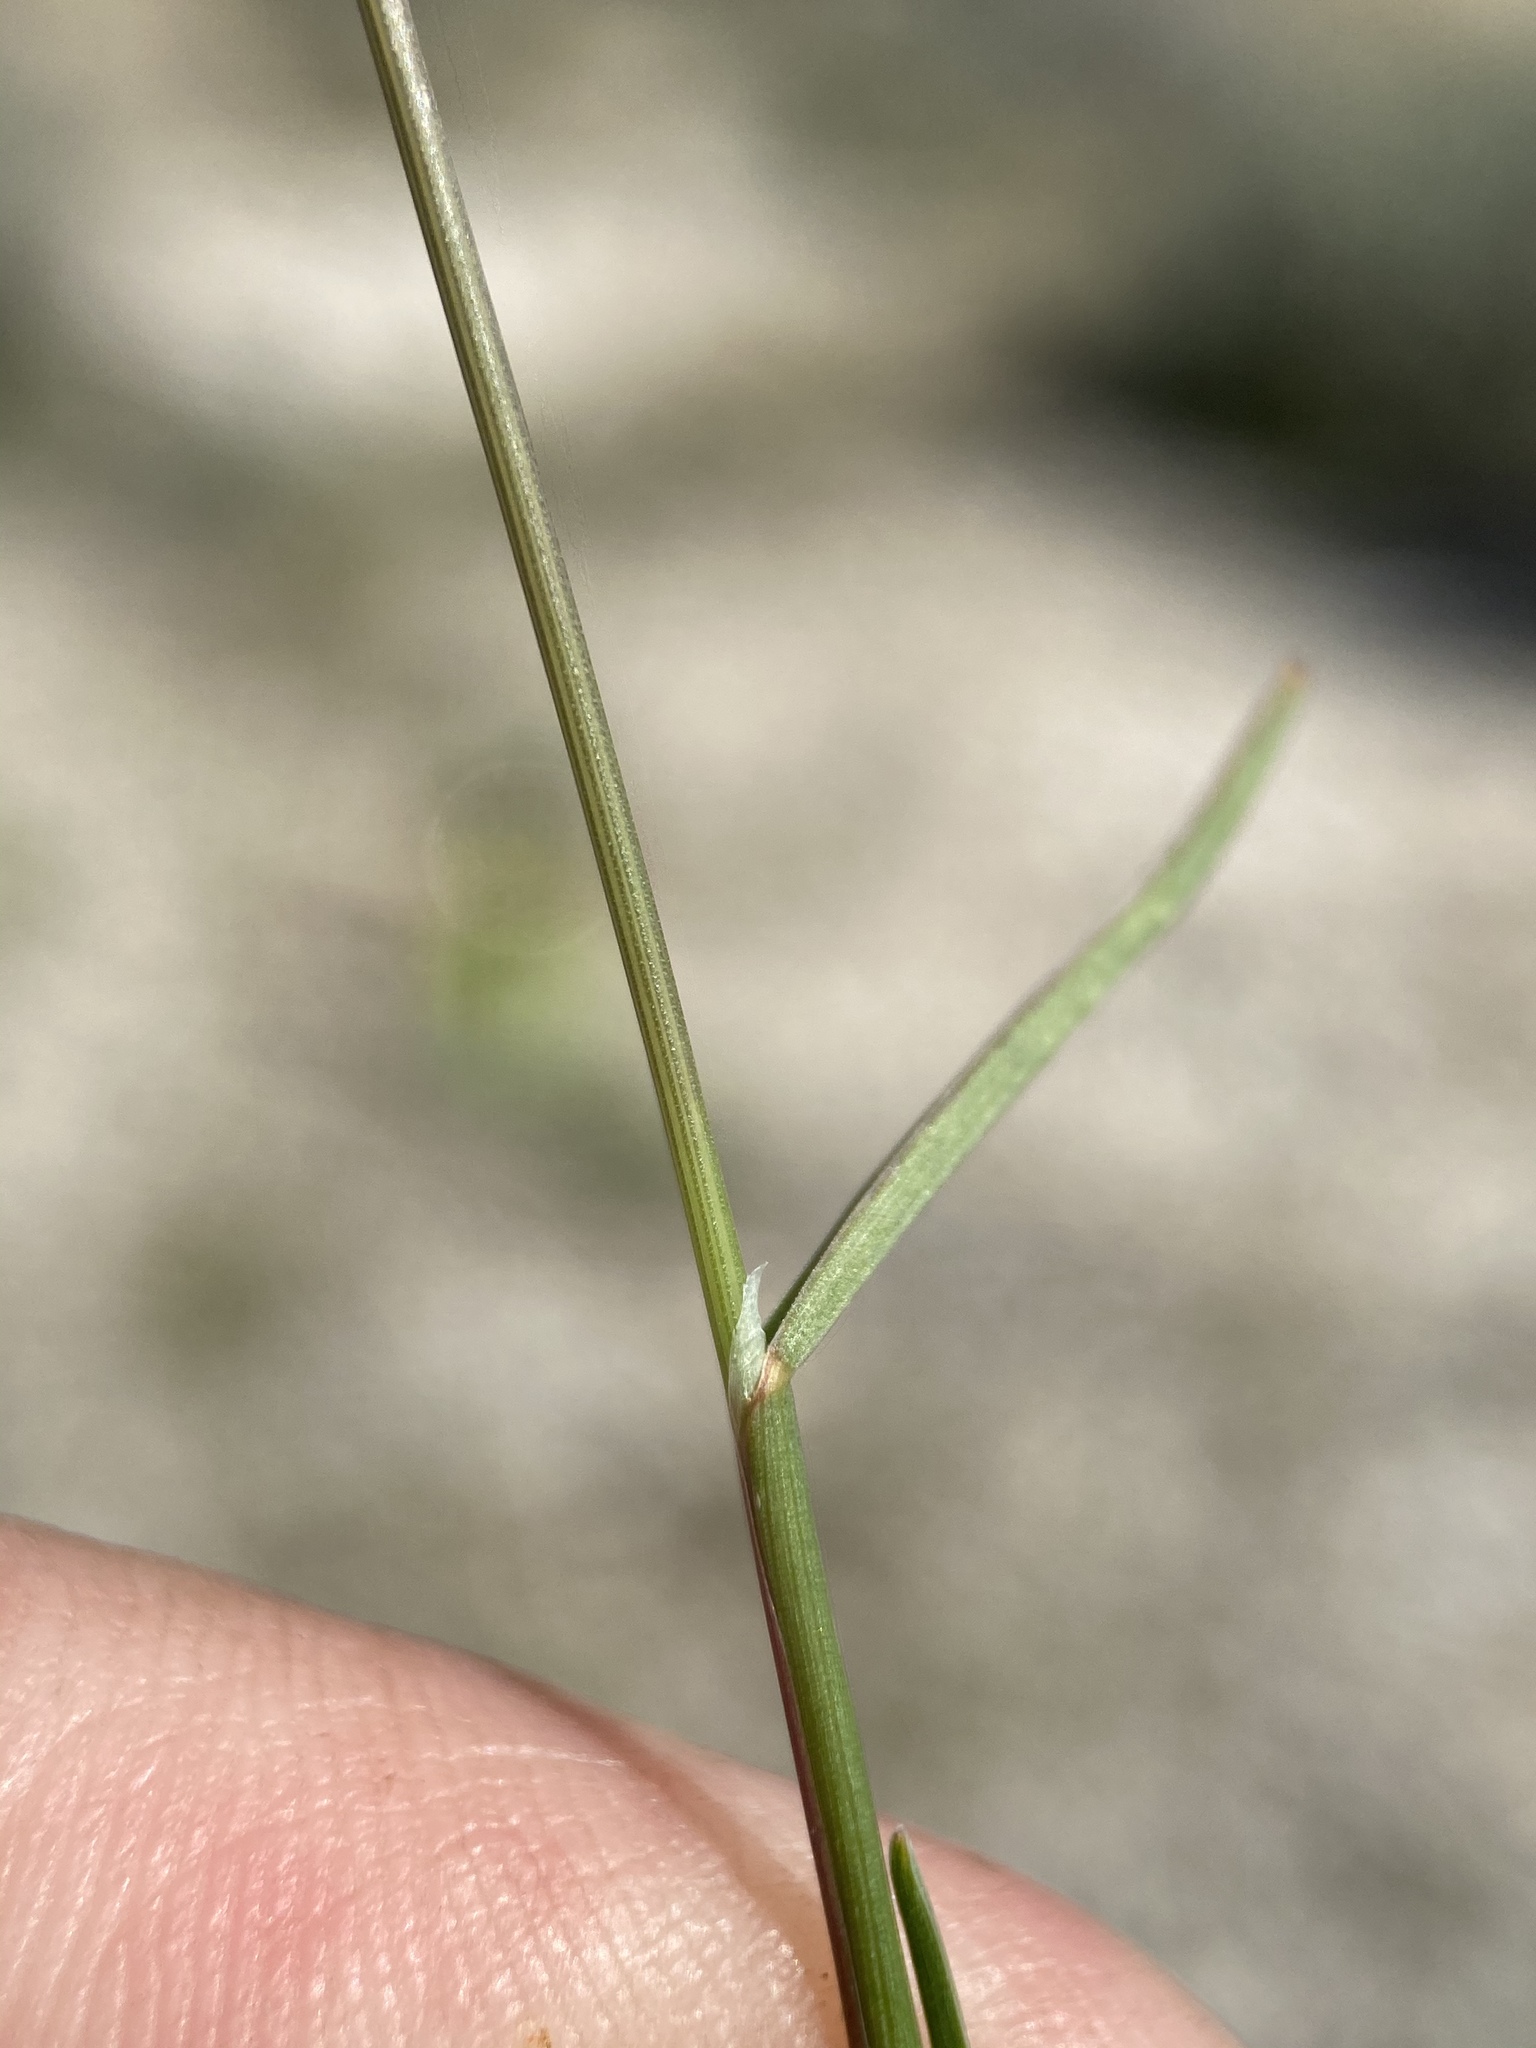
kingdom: Plantae
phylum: Tracheophyta
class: Liliopsida
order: Poales
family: Poaceae
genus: Poa
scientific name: Poa secunda
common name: Sandberg bluegrass
